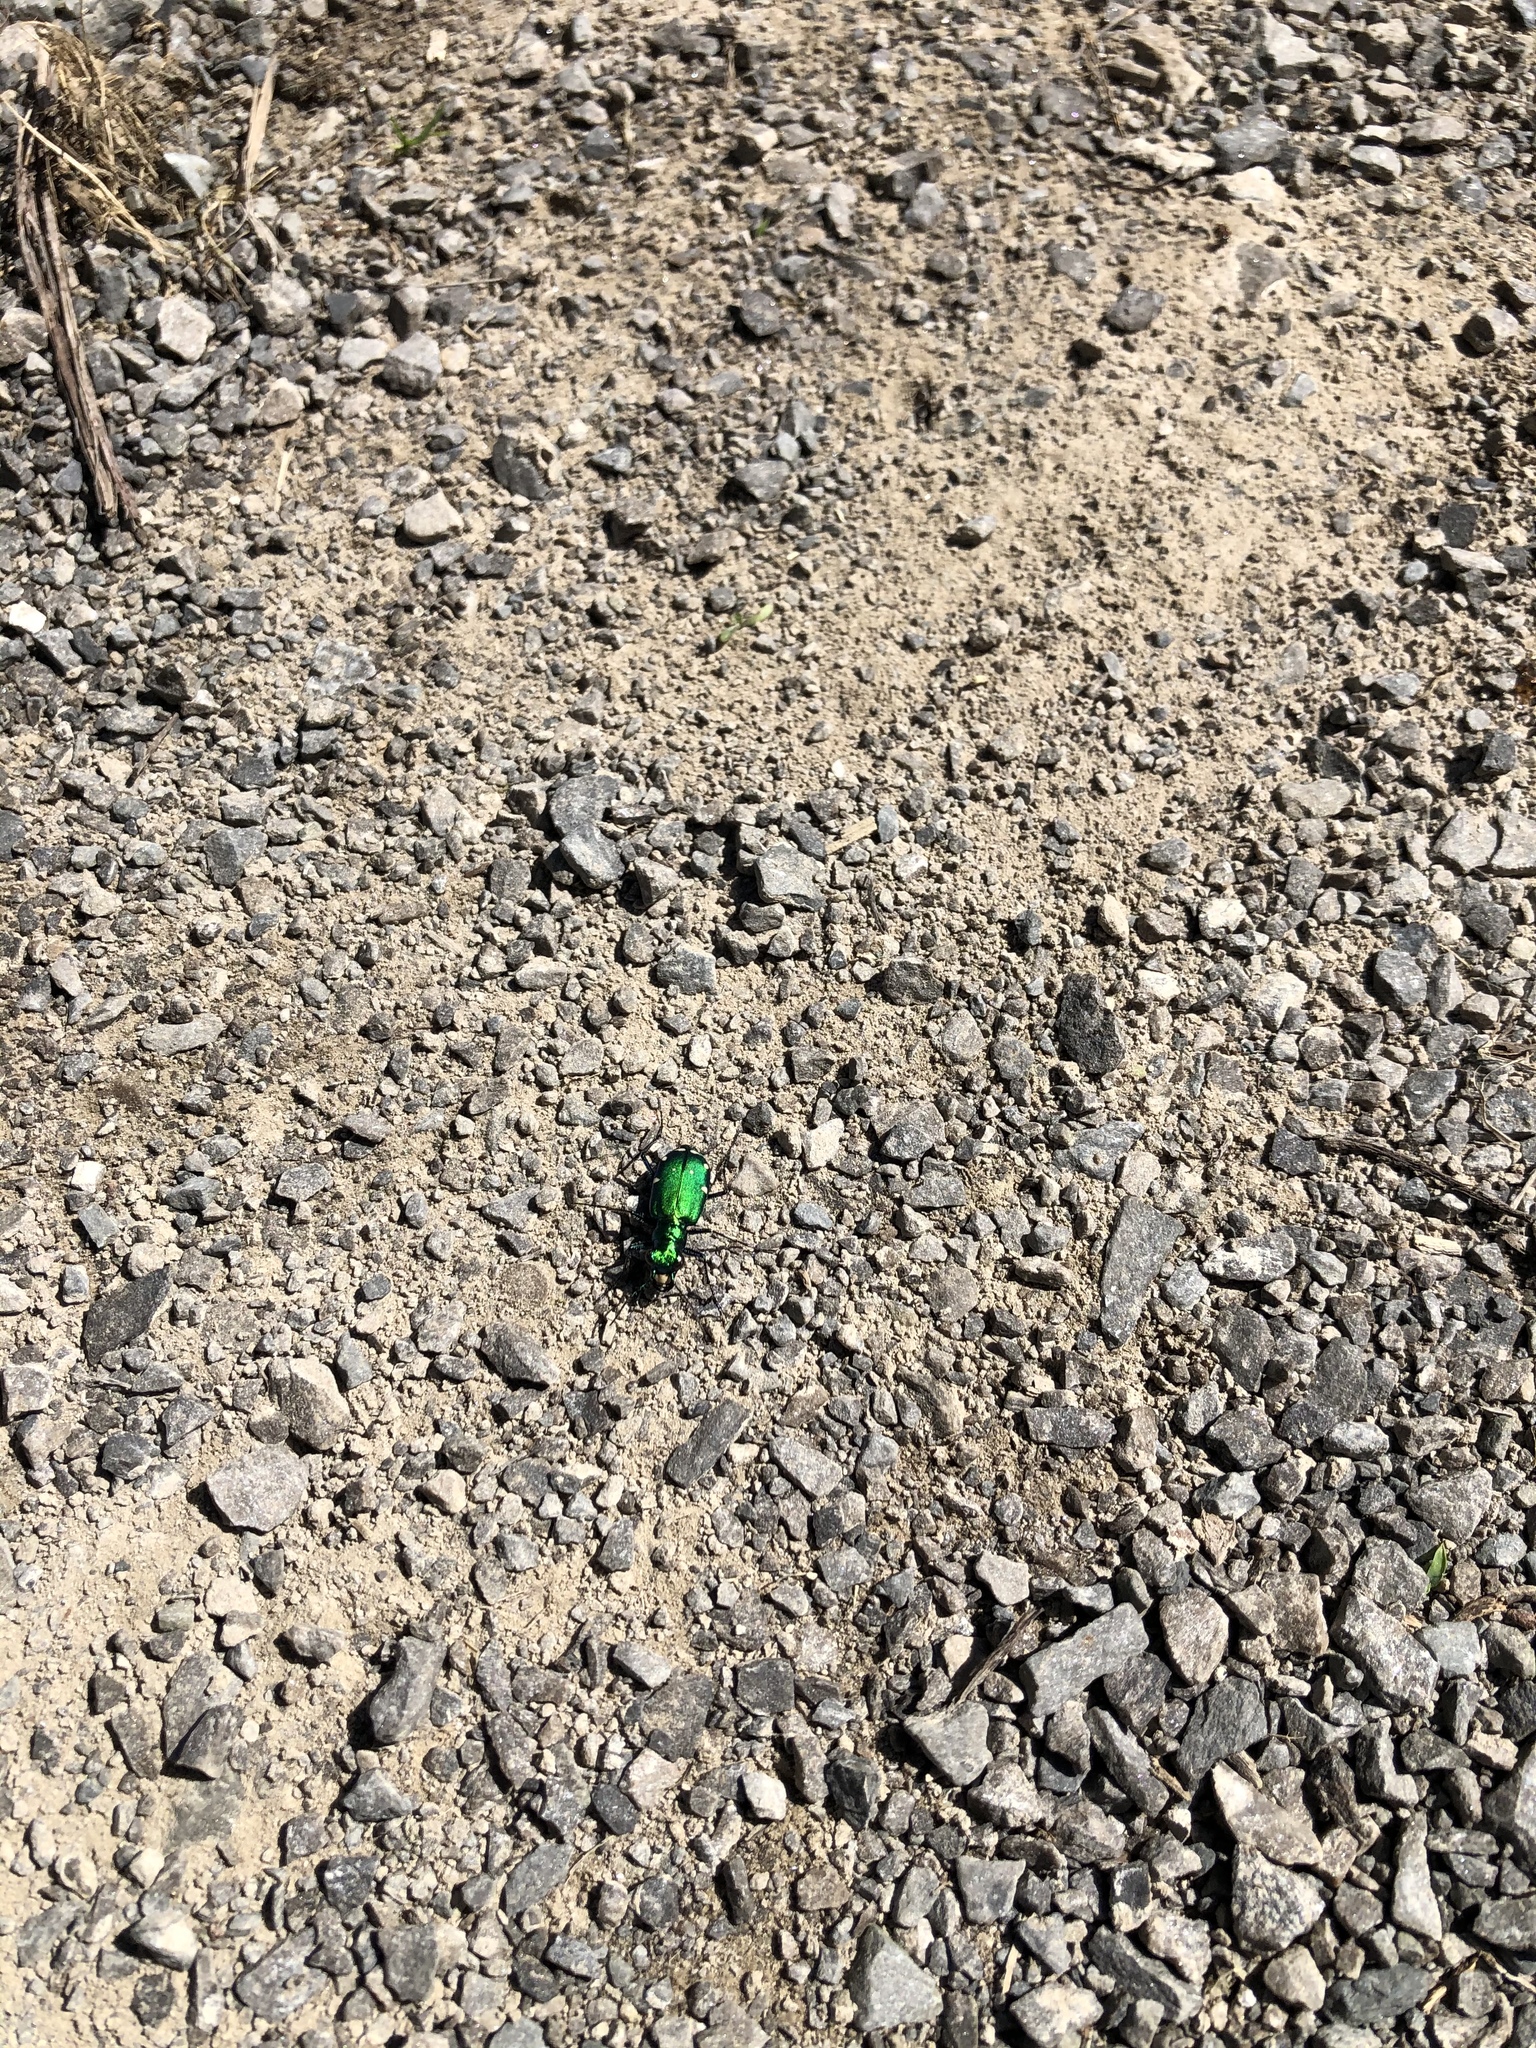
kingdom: Animalia
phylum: Arthropoda
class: Insecta
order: Coleoptera
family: Carabidae
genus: Cicindela
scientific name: Cicindela sexguttata
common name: Six-spotted tiger beetle
